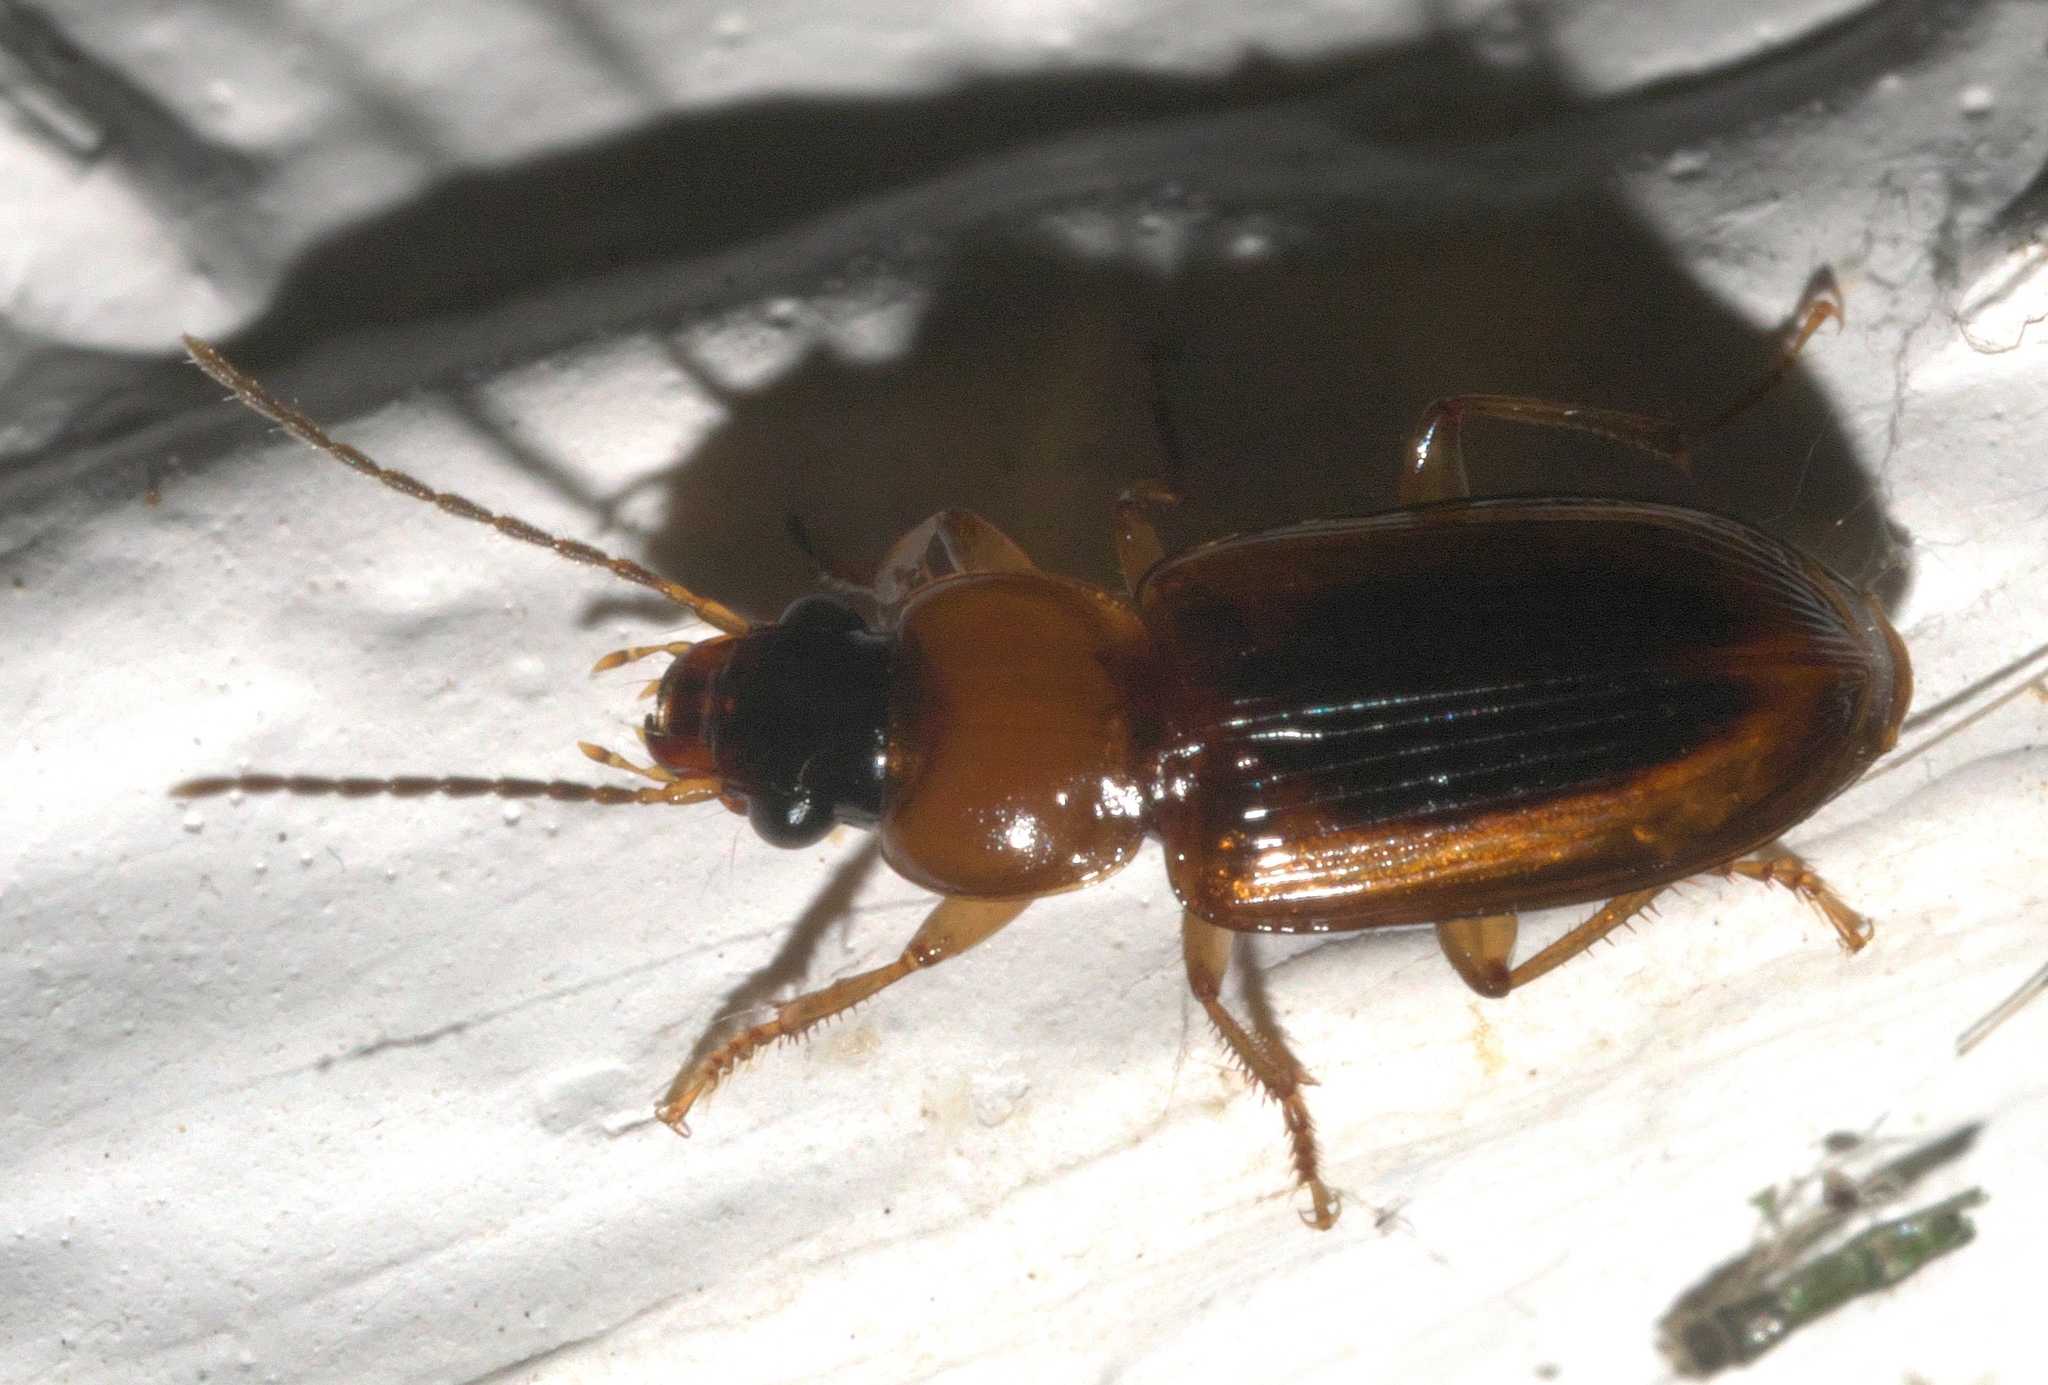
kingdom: Animalia
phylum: Arthropoda
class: Insecta
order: Coleoptera
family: Carabidae
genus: Stenolophus
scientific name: Stenolophus dissimilis
